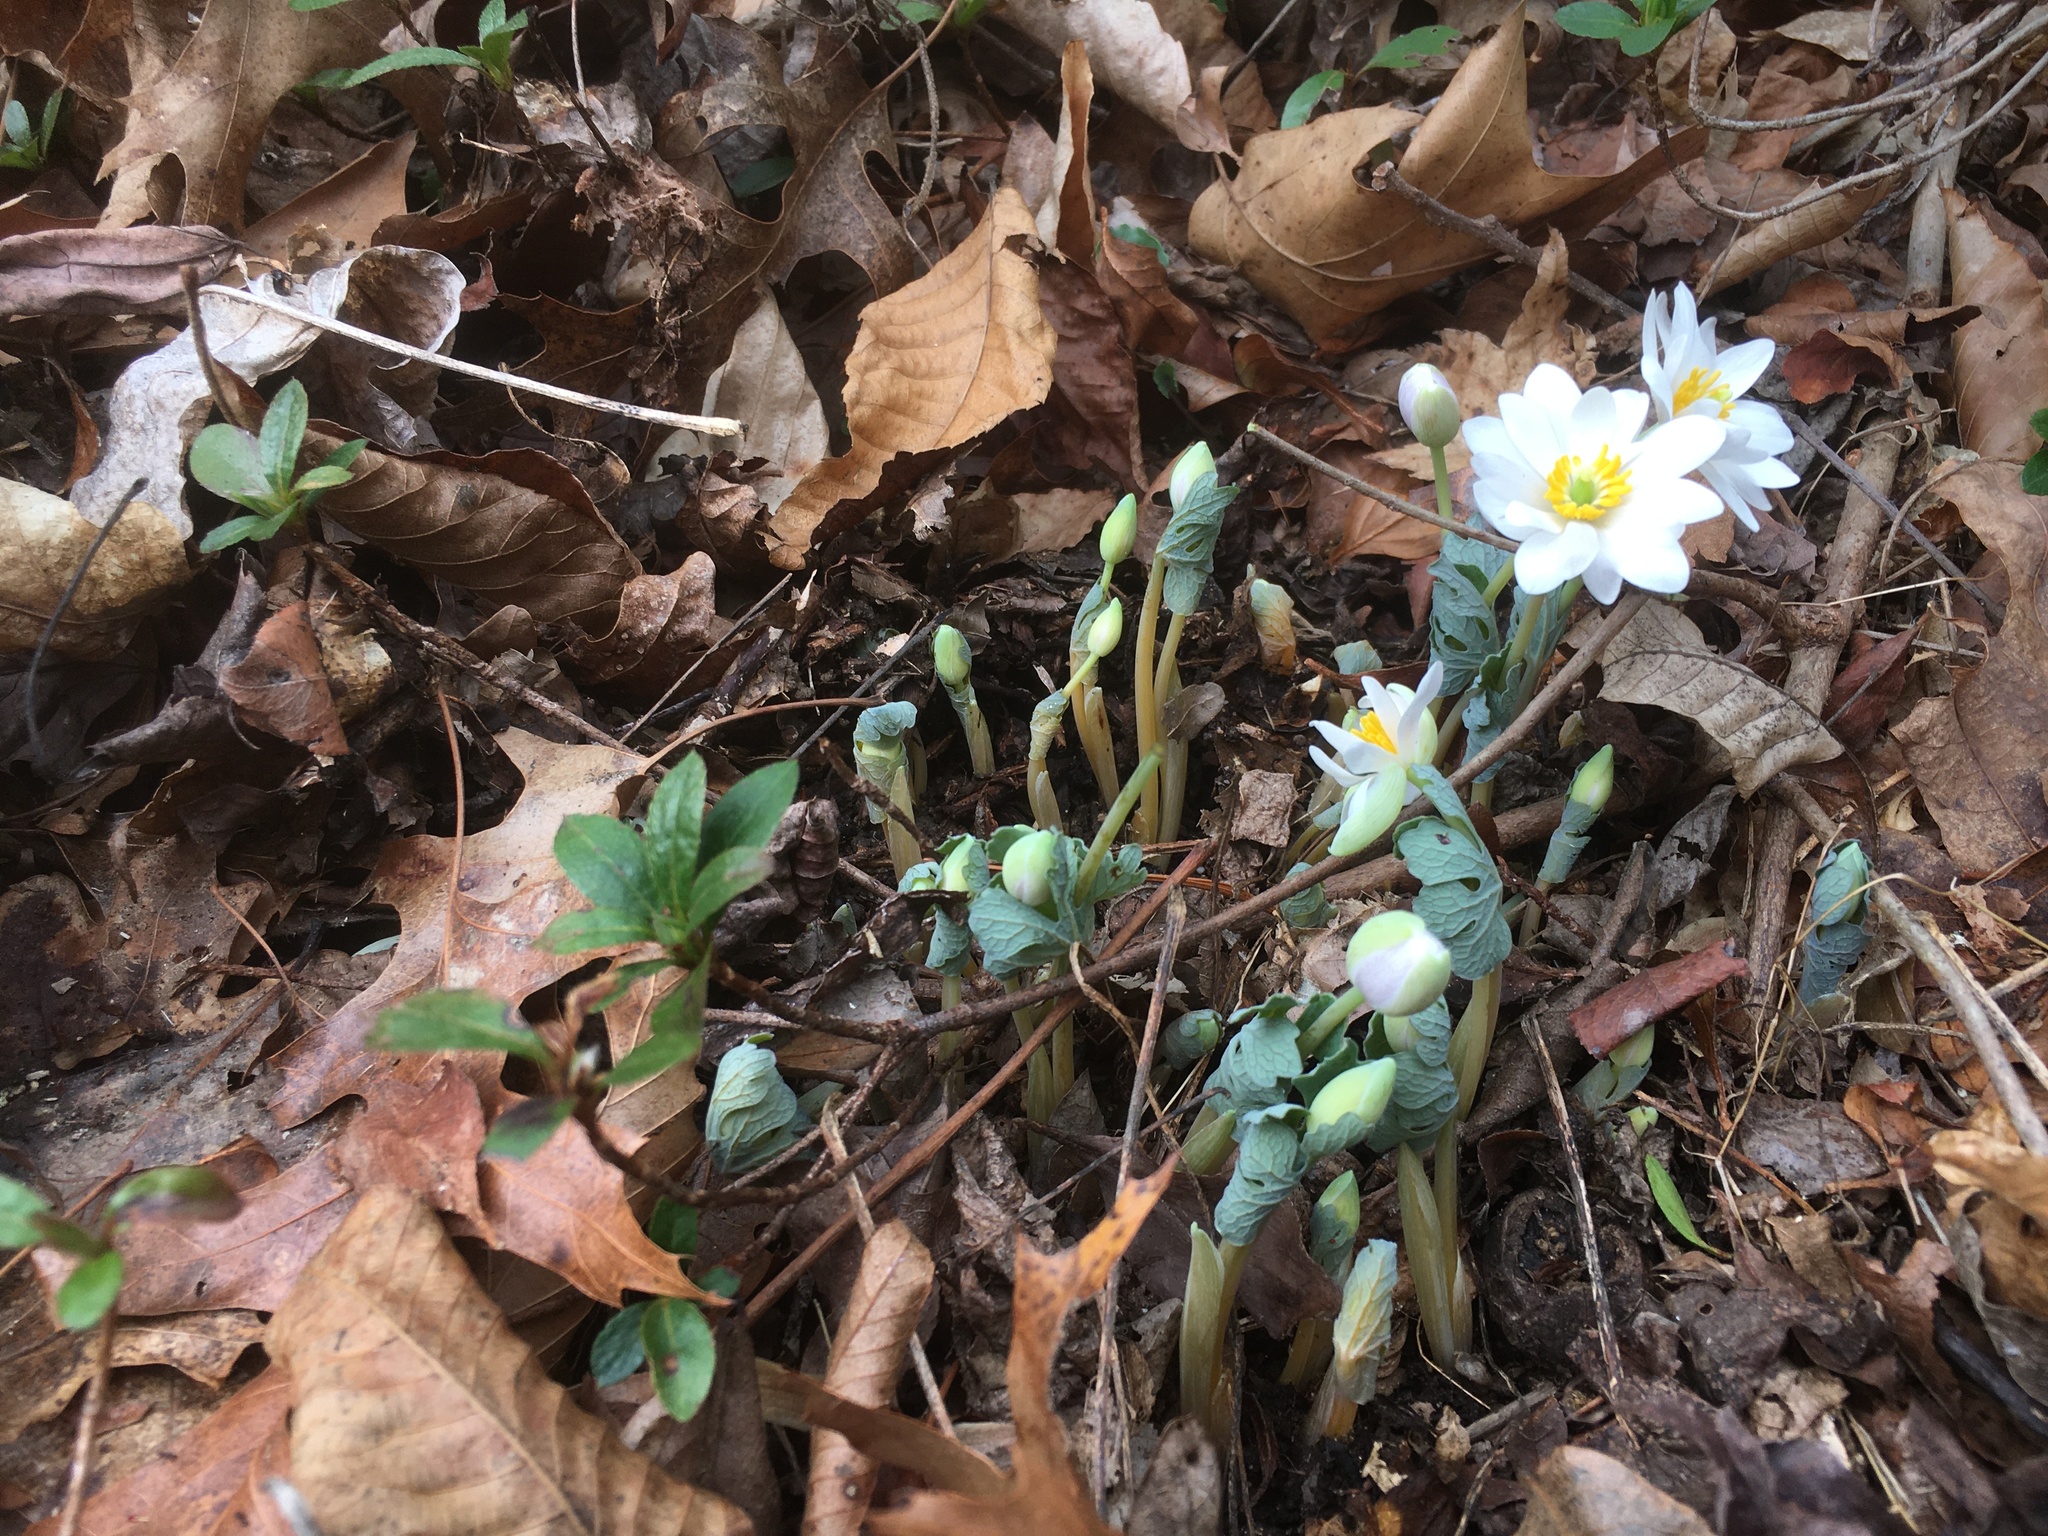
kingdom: Plantae
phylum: Tracheophyta
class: Magnoliopsida
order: Ranunculales
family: Papaveraceae
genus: Sanguinaria
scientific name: Sanguinaria canadensis
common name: Bloodroot
